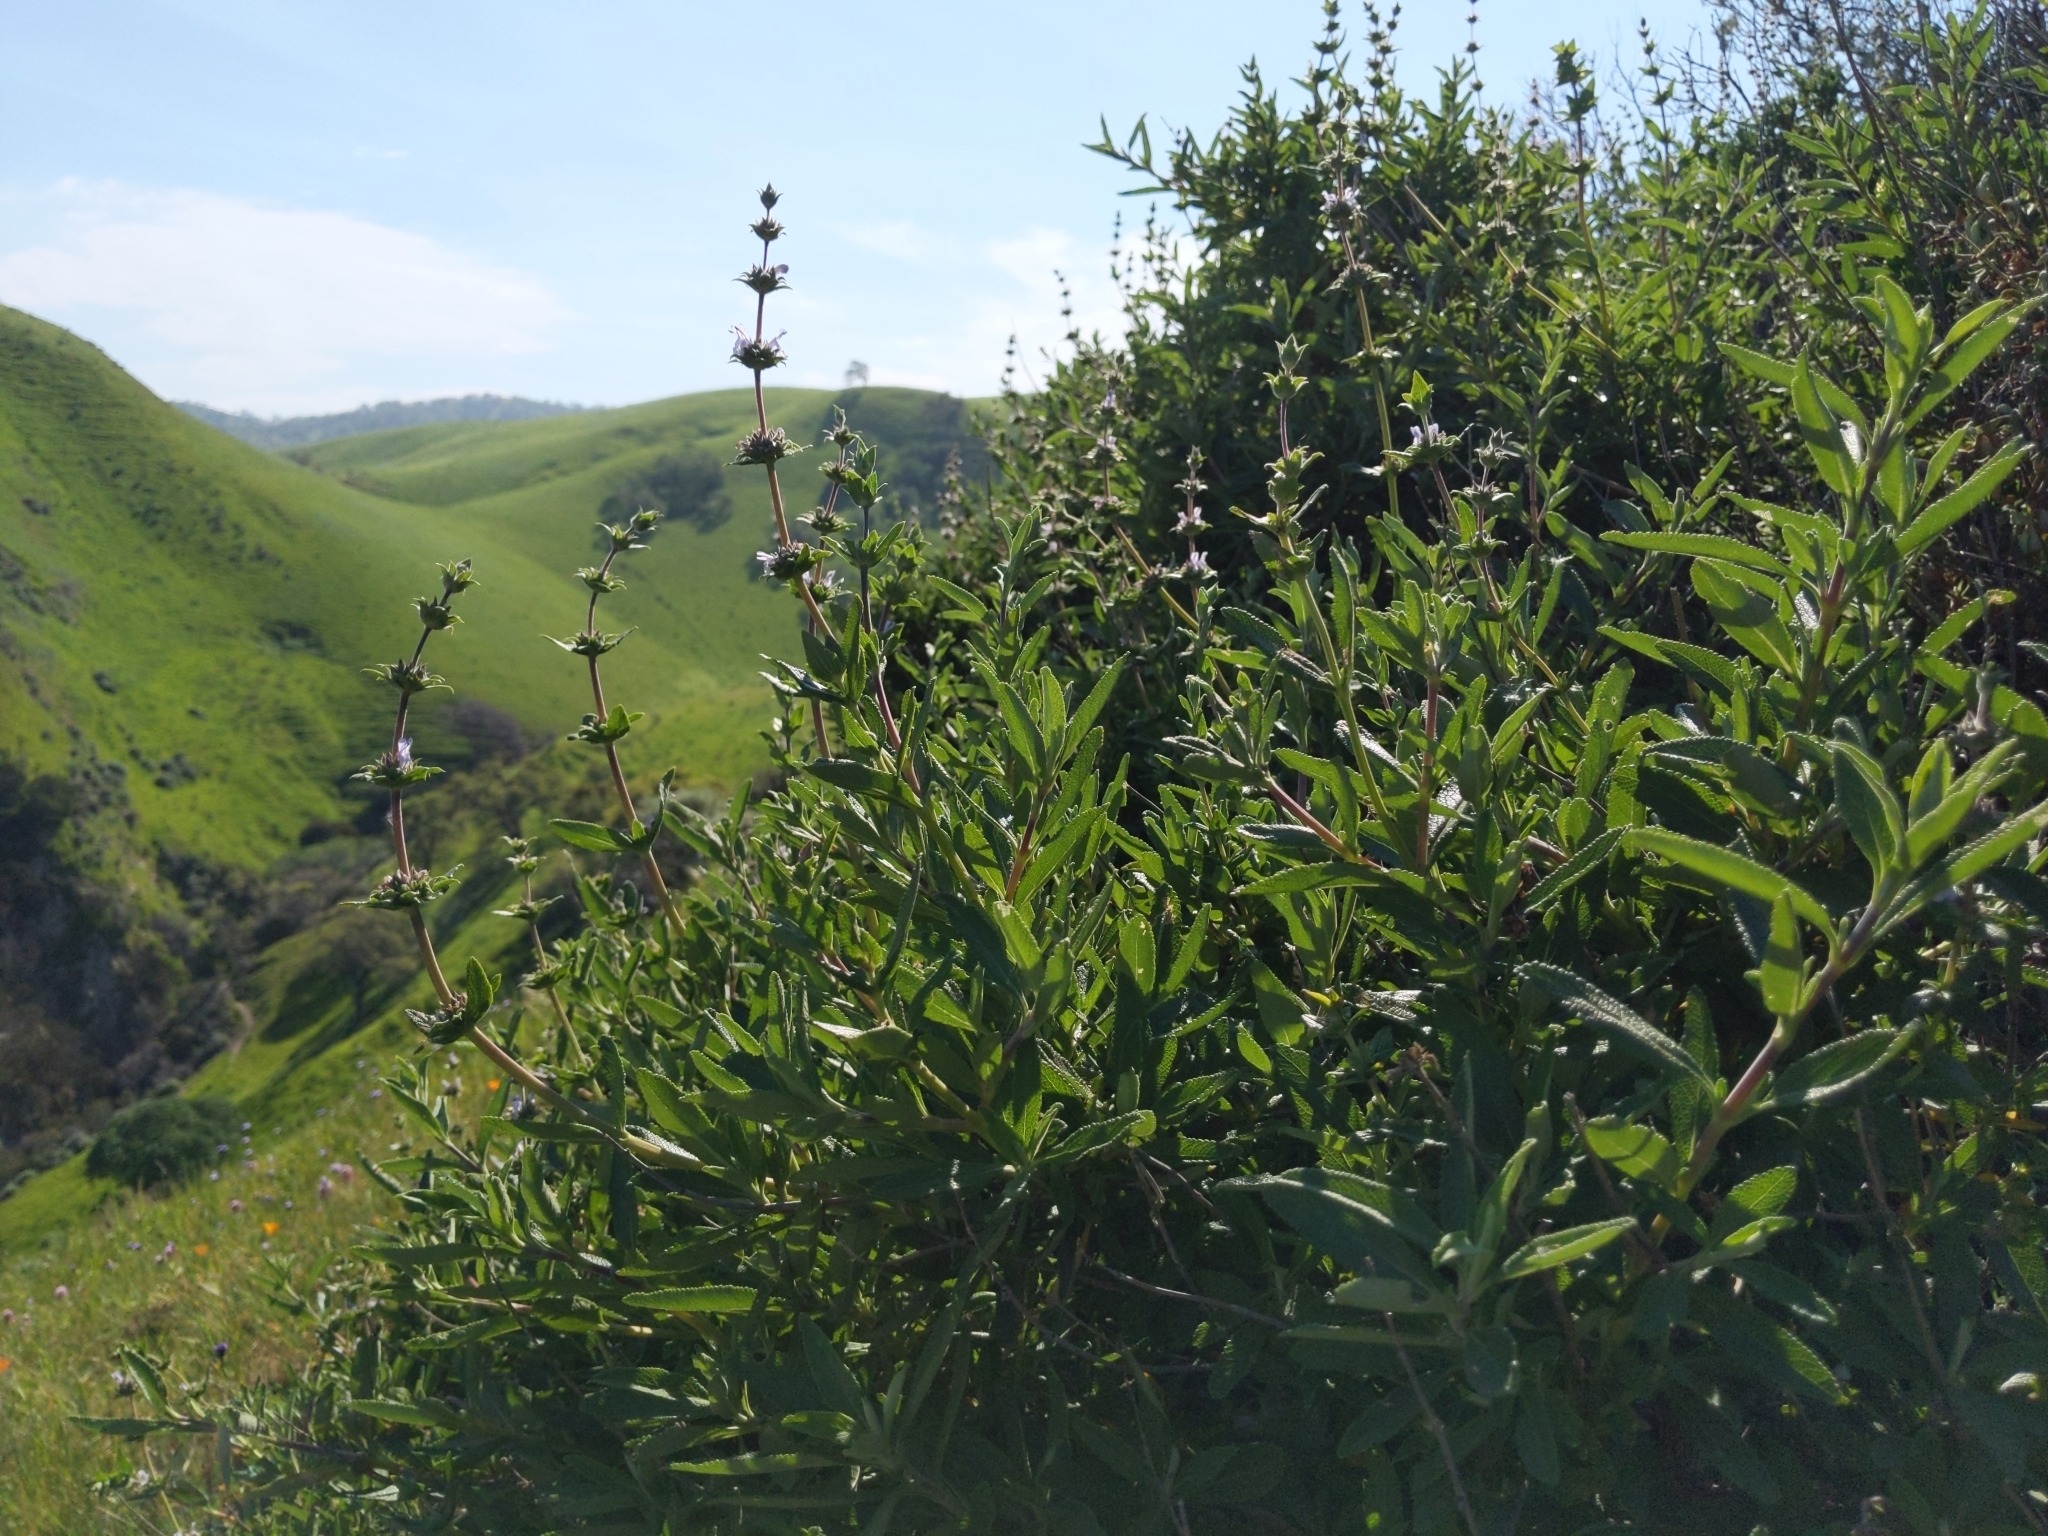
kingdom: Plantae
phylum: Tracheophyta
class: Magnoliopsida
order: Lamiales
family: Lamiaceae
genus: Salvia
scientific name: Salvia mellifera
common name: Black sage
